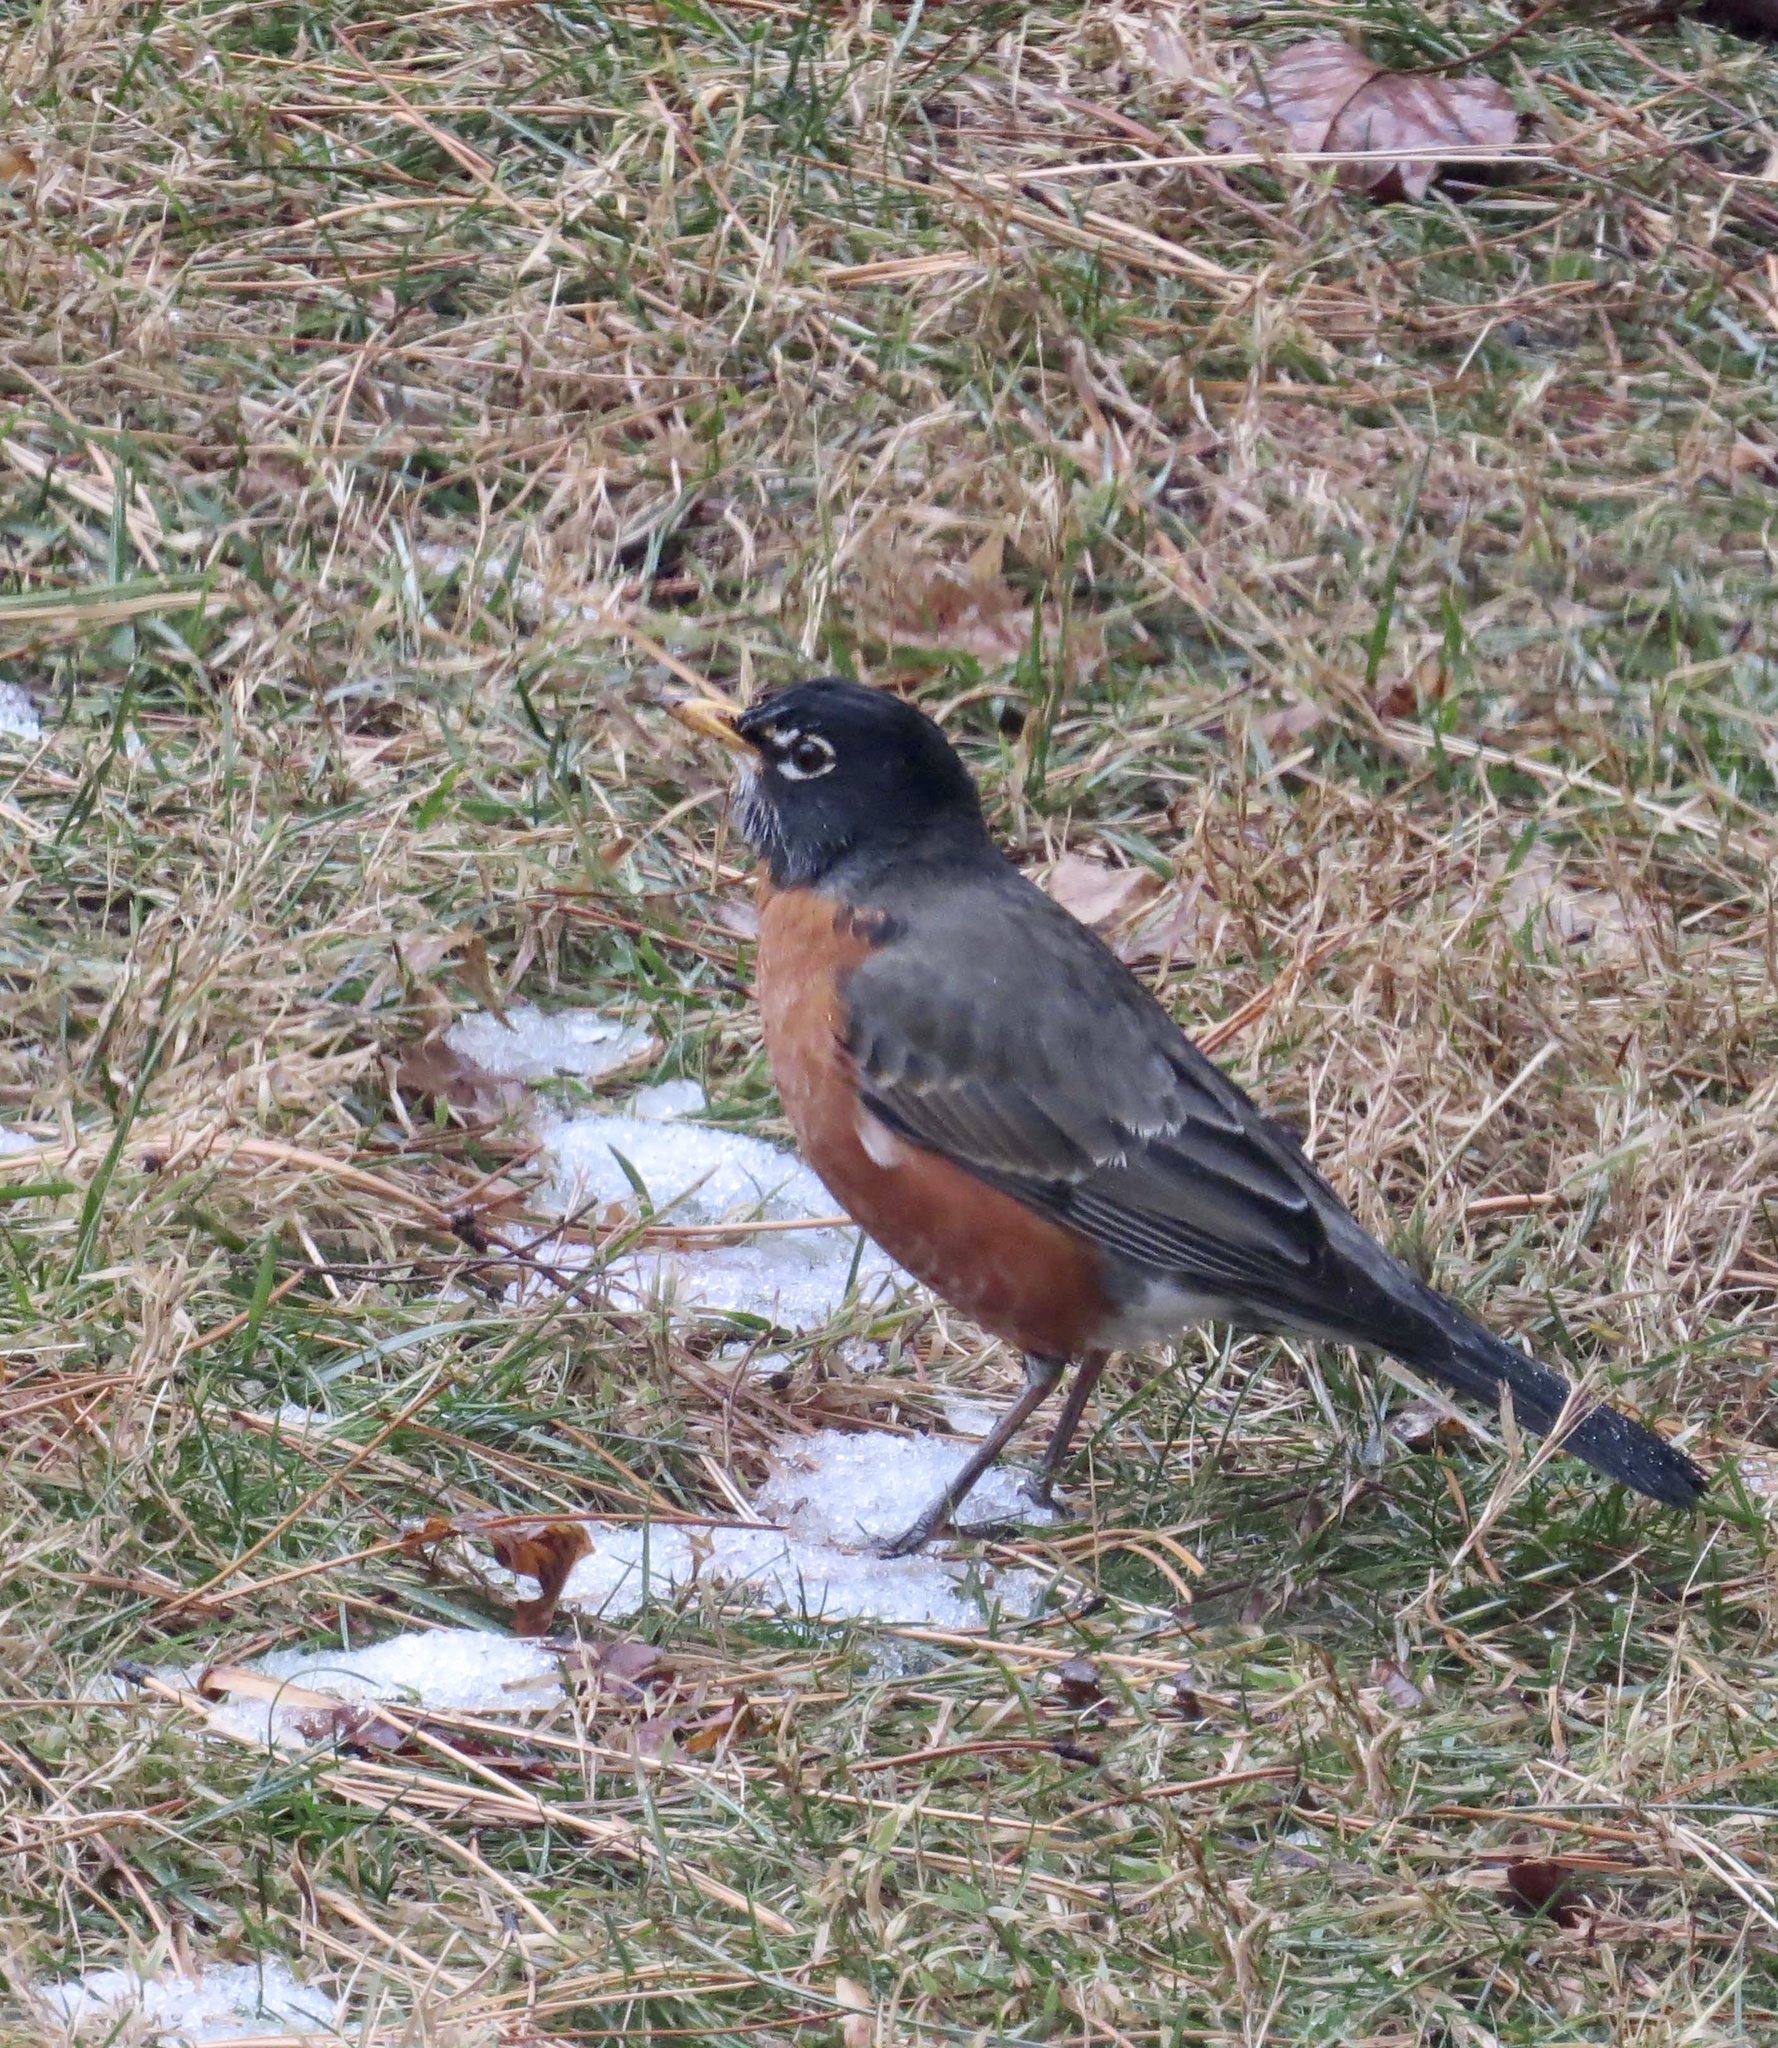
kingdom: Animalia
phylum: Chordata
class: Aves
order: Passeriformes
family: Turdidae
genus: Turdus
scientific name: Turdus migratorius
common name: American robin
